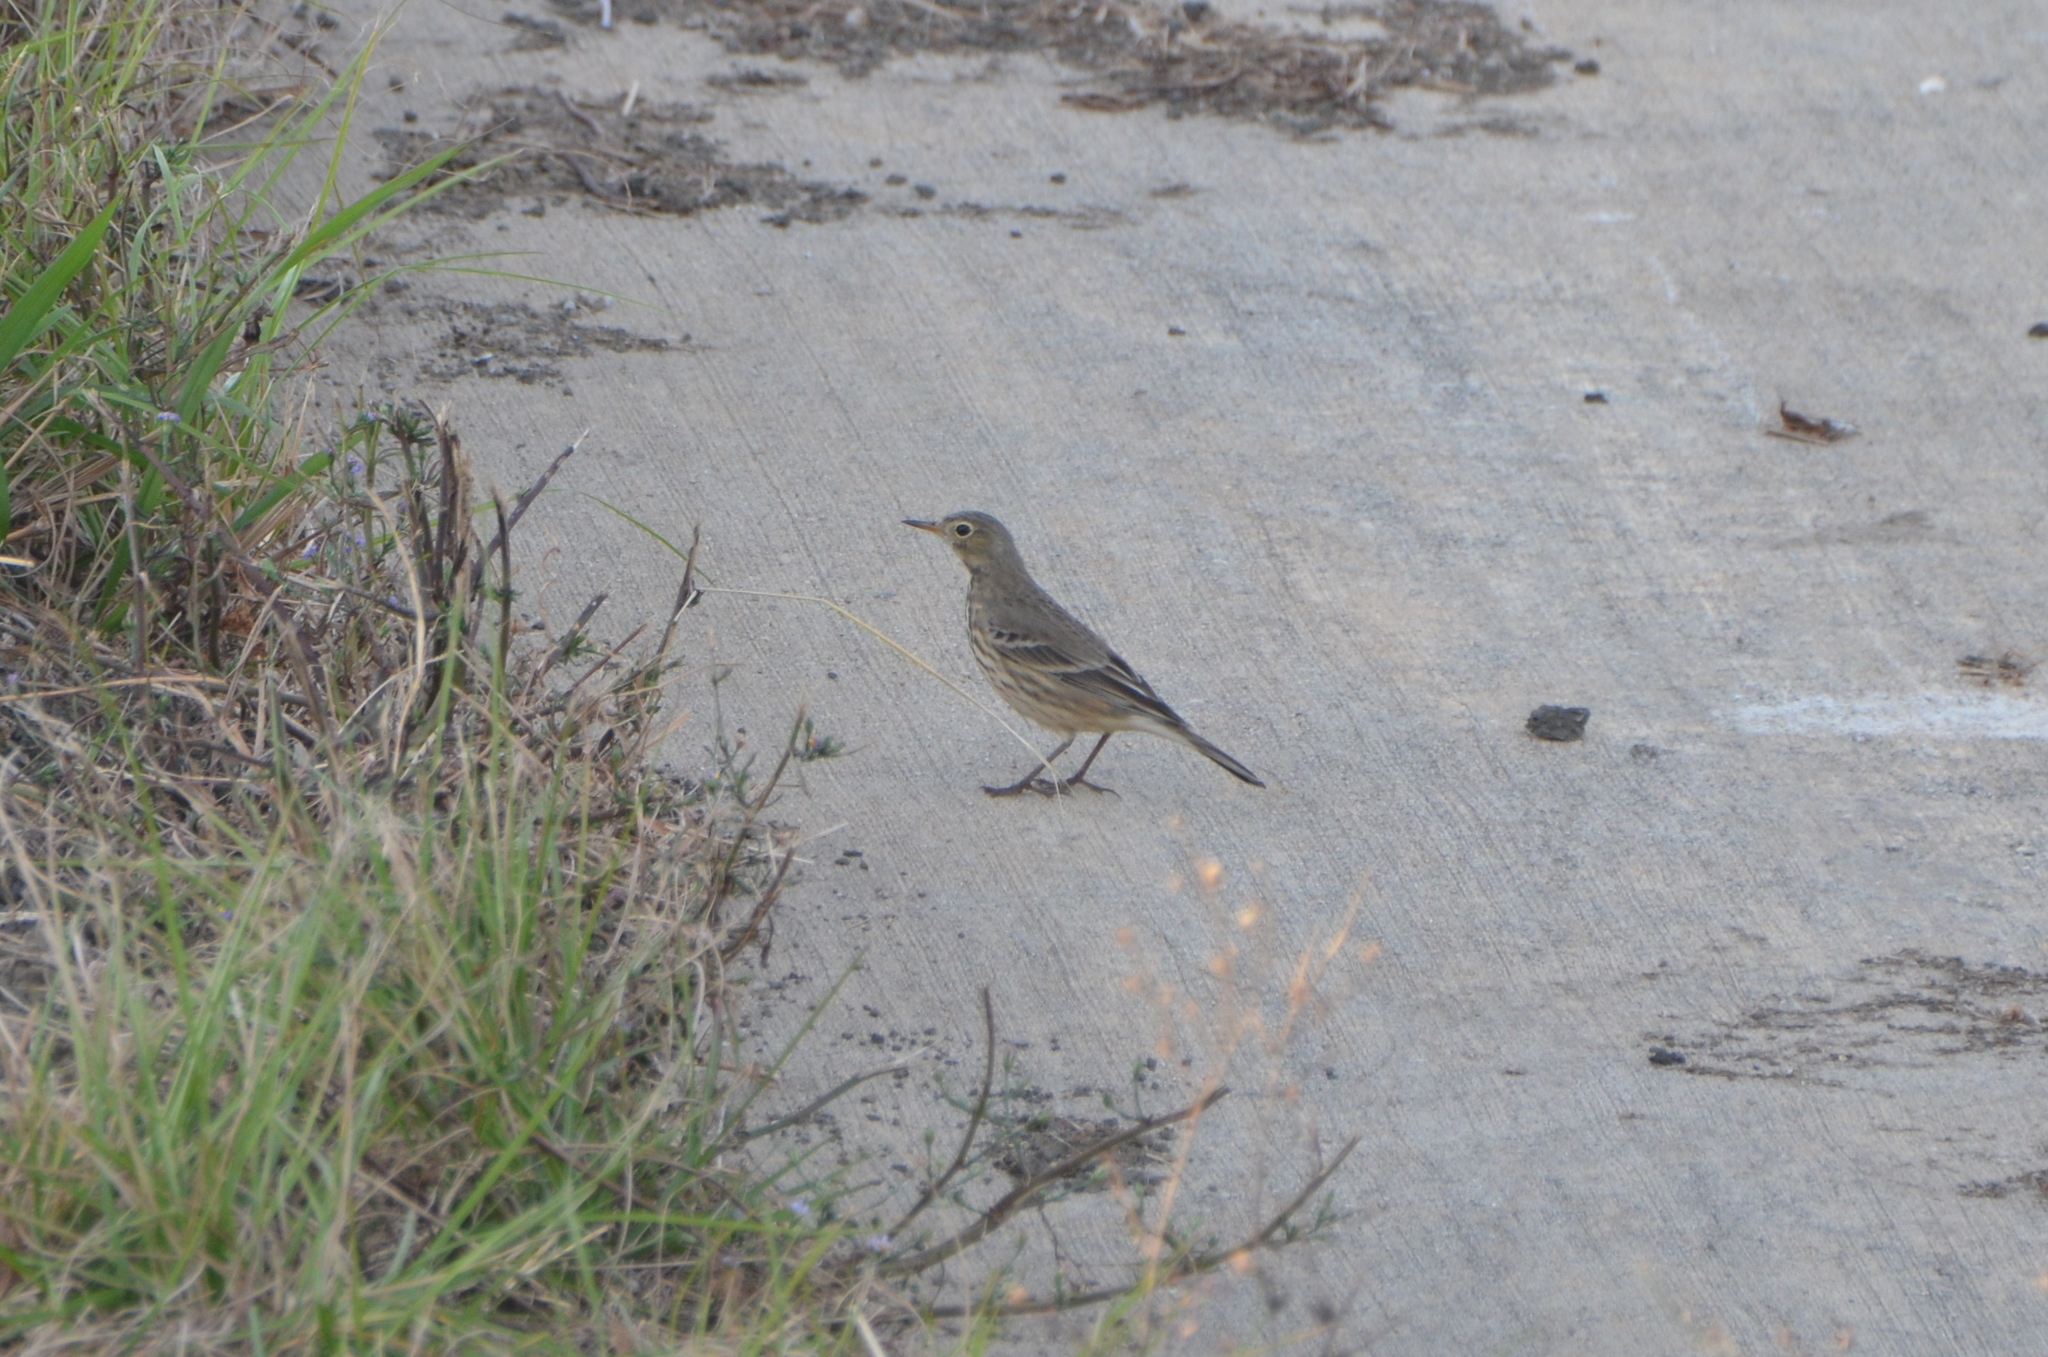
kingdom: Animalia
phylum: Chordata
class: Aves
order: Passeriformes
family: Motacillidae
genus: Anthus
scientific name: Anthus rubescens
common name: Buff-bellied pipit
